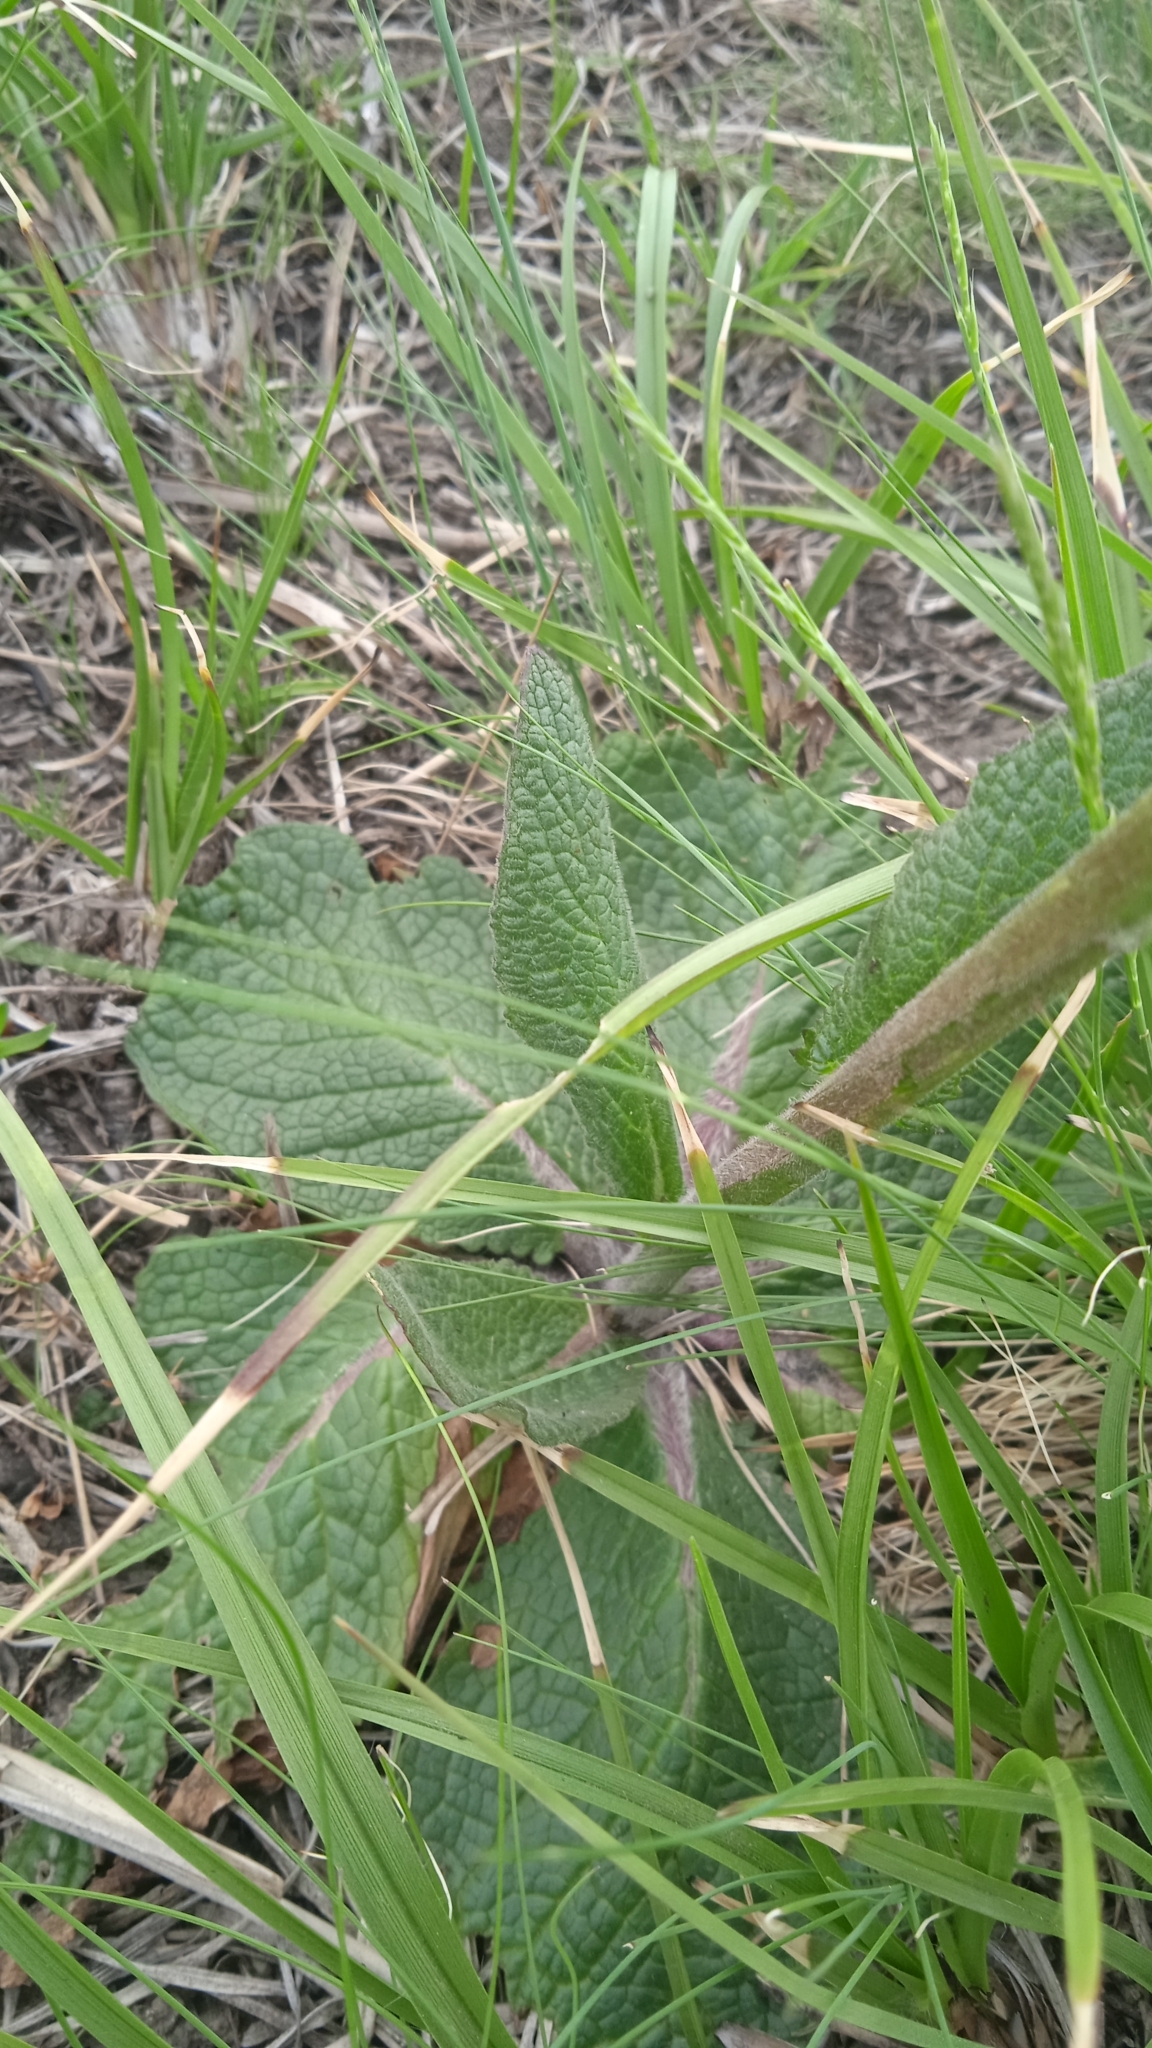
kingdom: Plantae
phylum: Tracheophyta
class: Magnoliopsida
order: Lamiales
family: Scrophulariaceae
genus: Verbascum
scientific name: Verbascum phoeniceum
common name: Purple mullein
